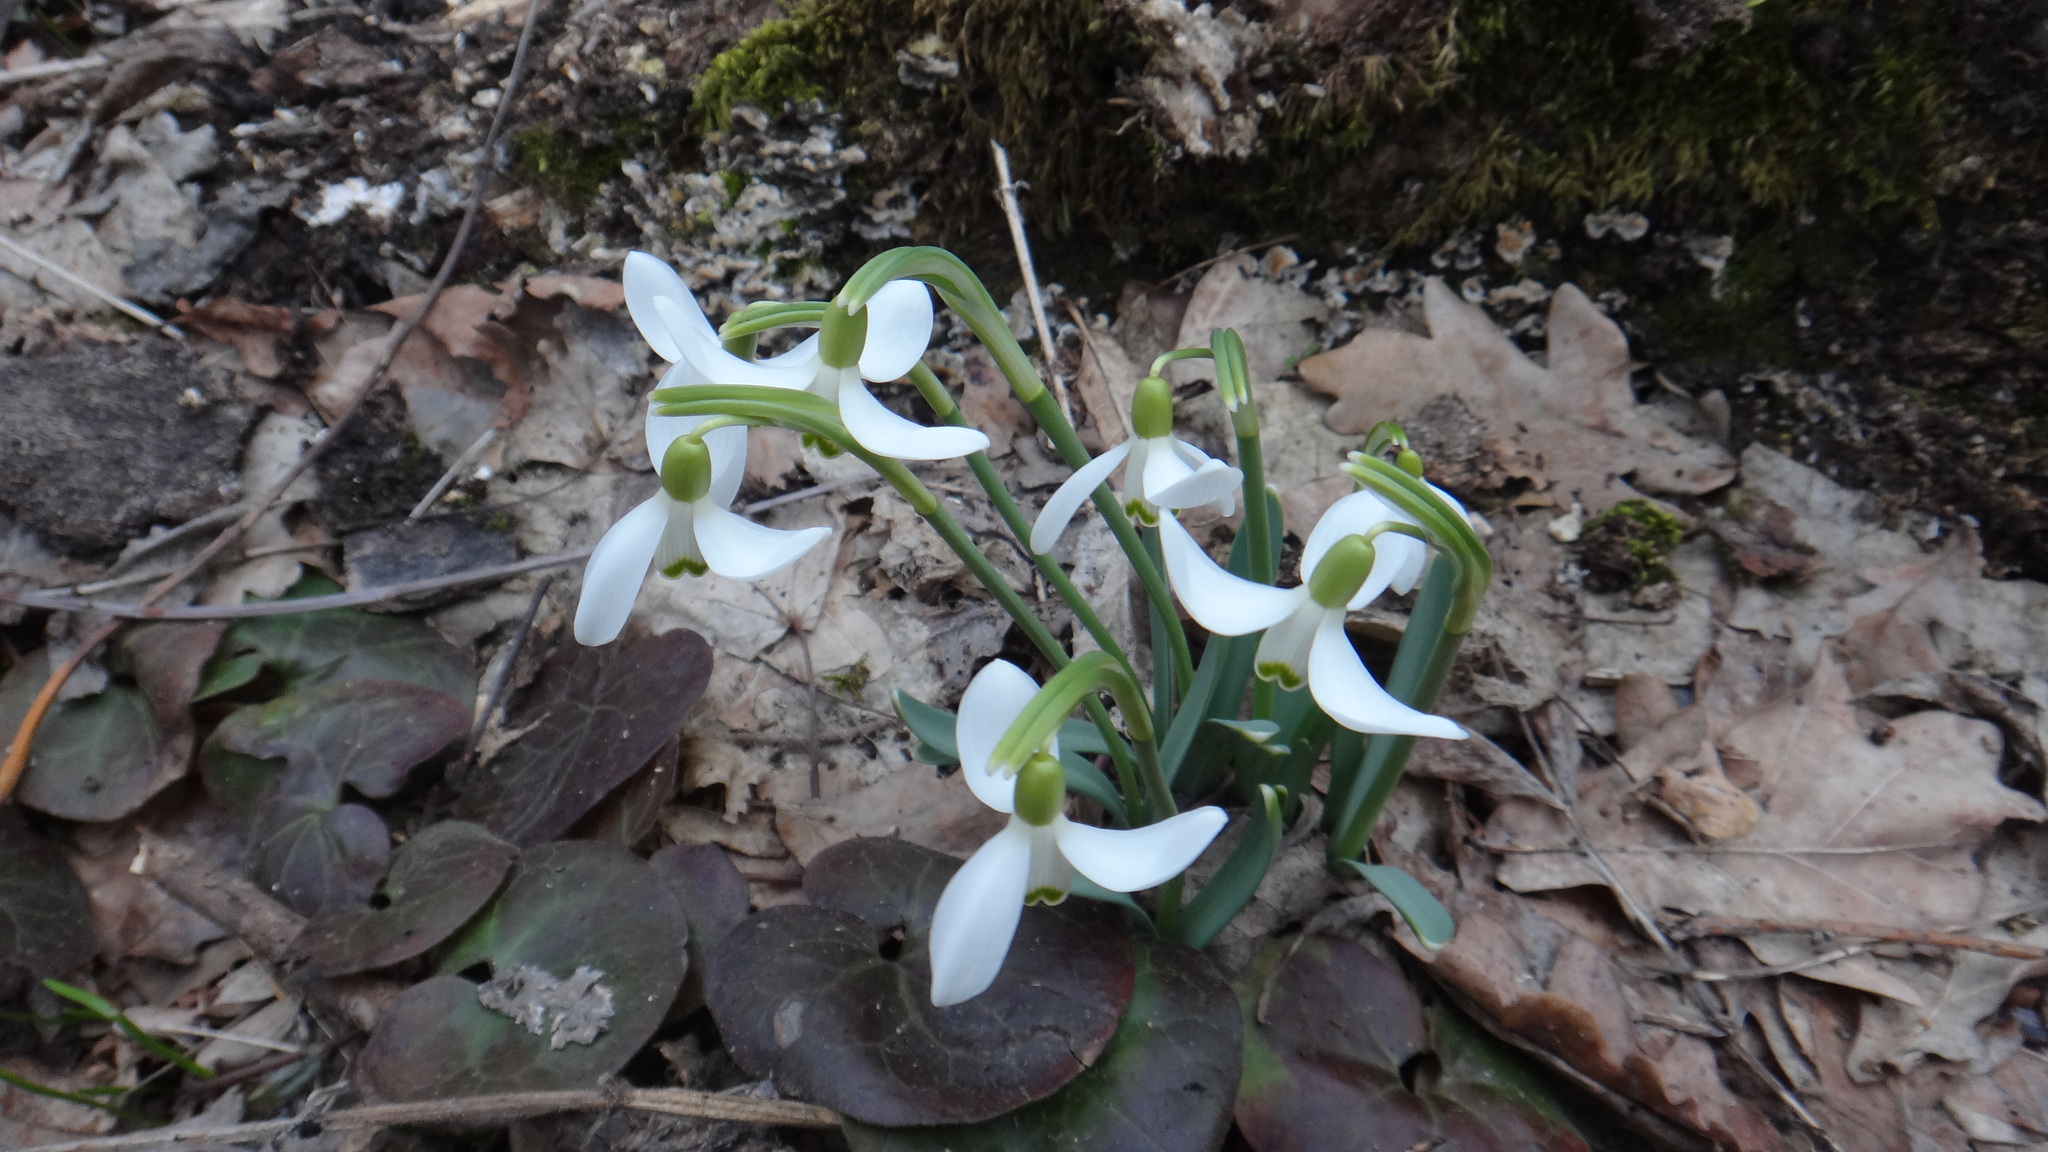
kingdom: Plantae
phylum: Tracheophyta
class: Liliopsida
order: Asparagales
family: Amaryllidaceae
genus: Galanthus
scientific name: Galanthus nivalis
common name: Snowdrop
